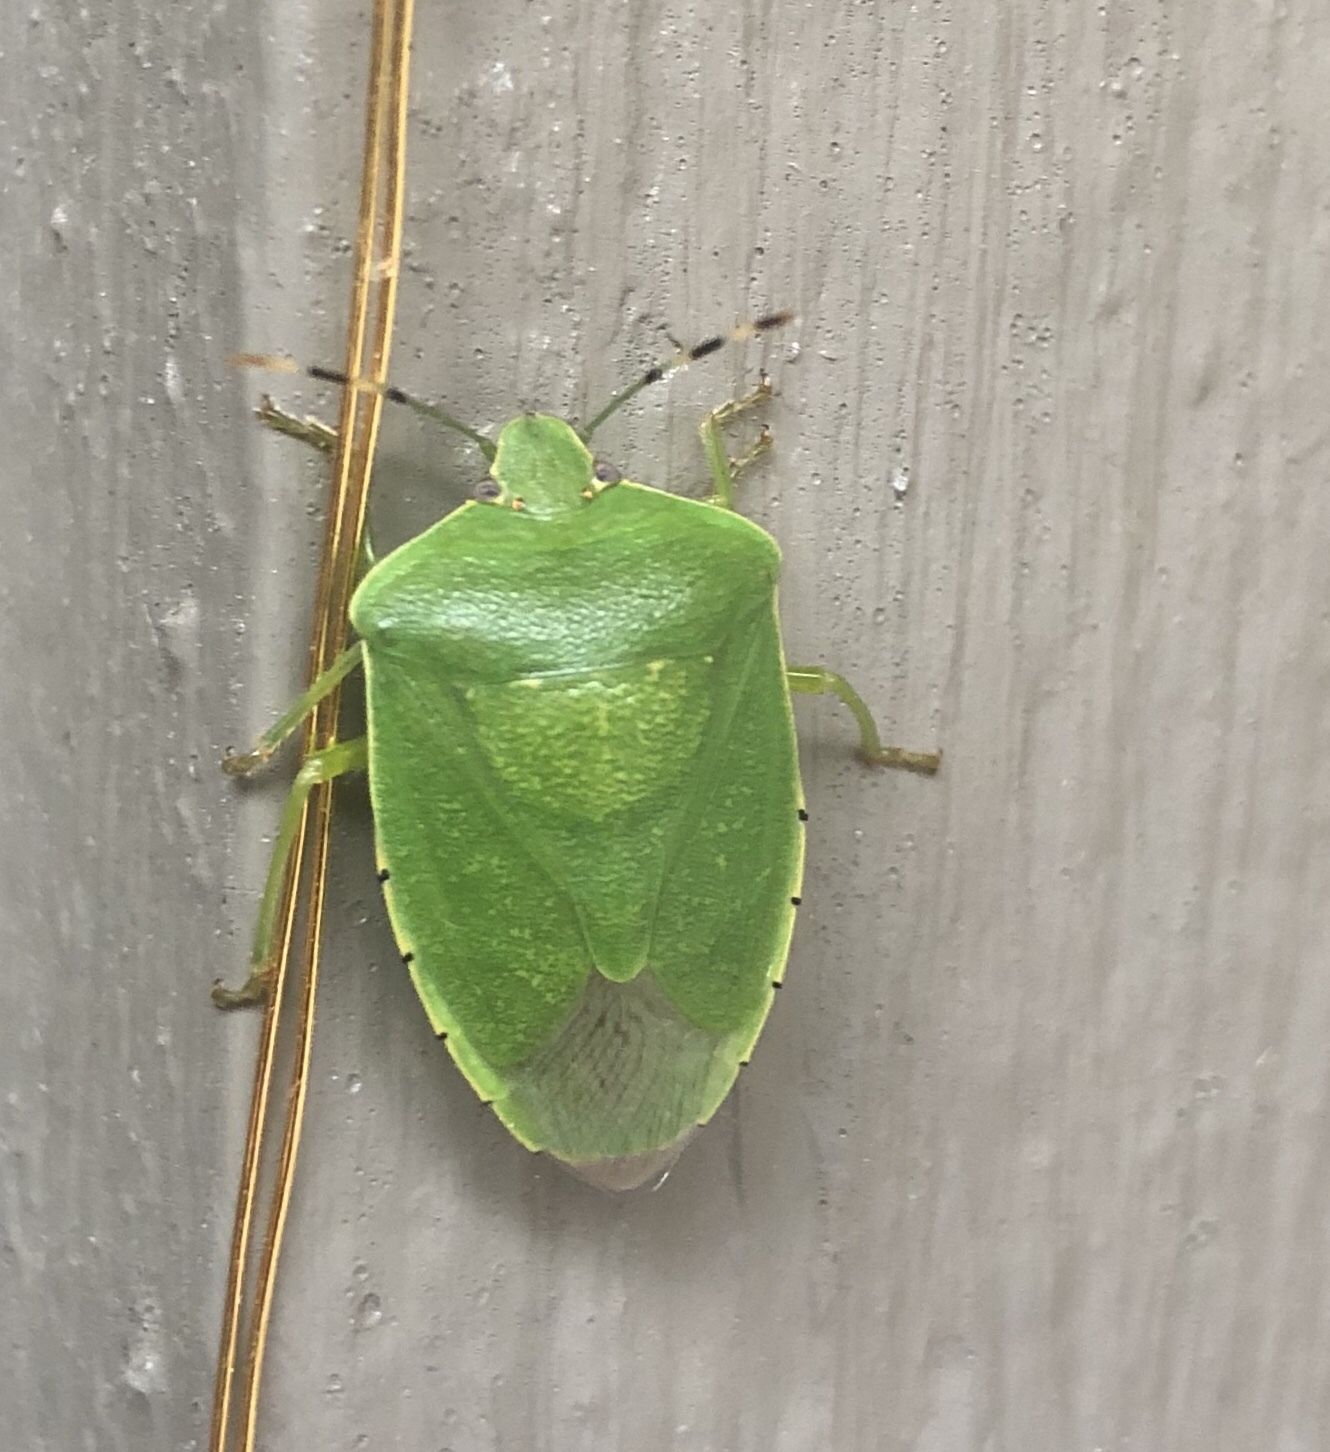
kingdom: Animalia
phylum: Arthropoda
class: Insecta
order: Hemiptera
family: Pentatomidae
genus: Chinavia
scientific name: Chinavia hilaris
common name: Green stink bug
